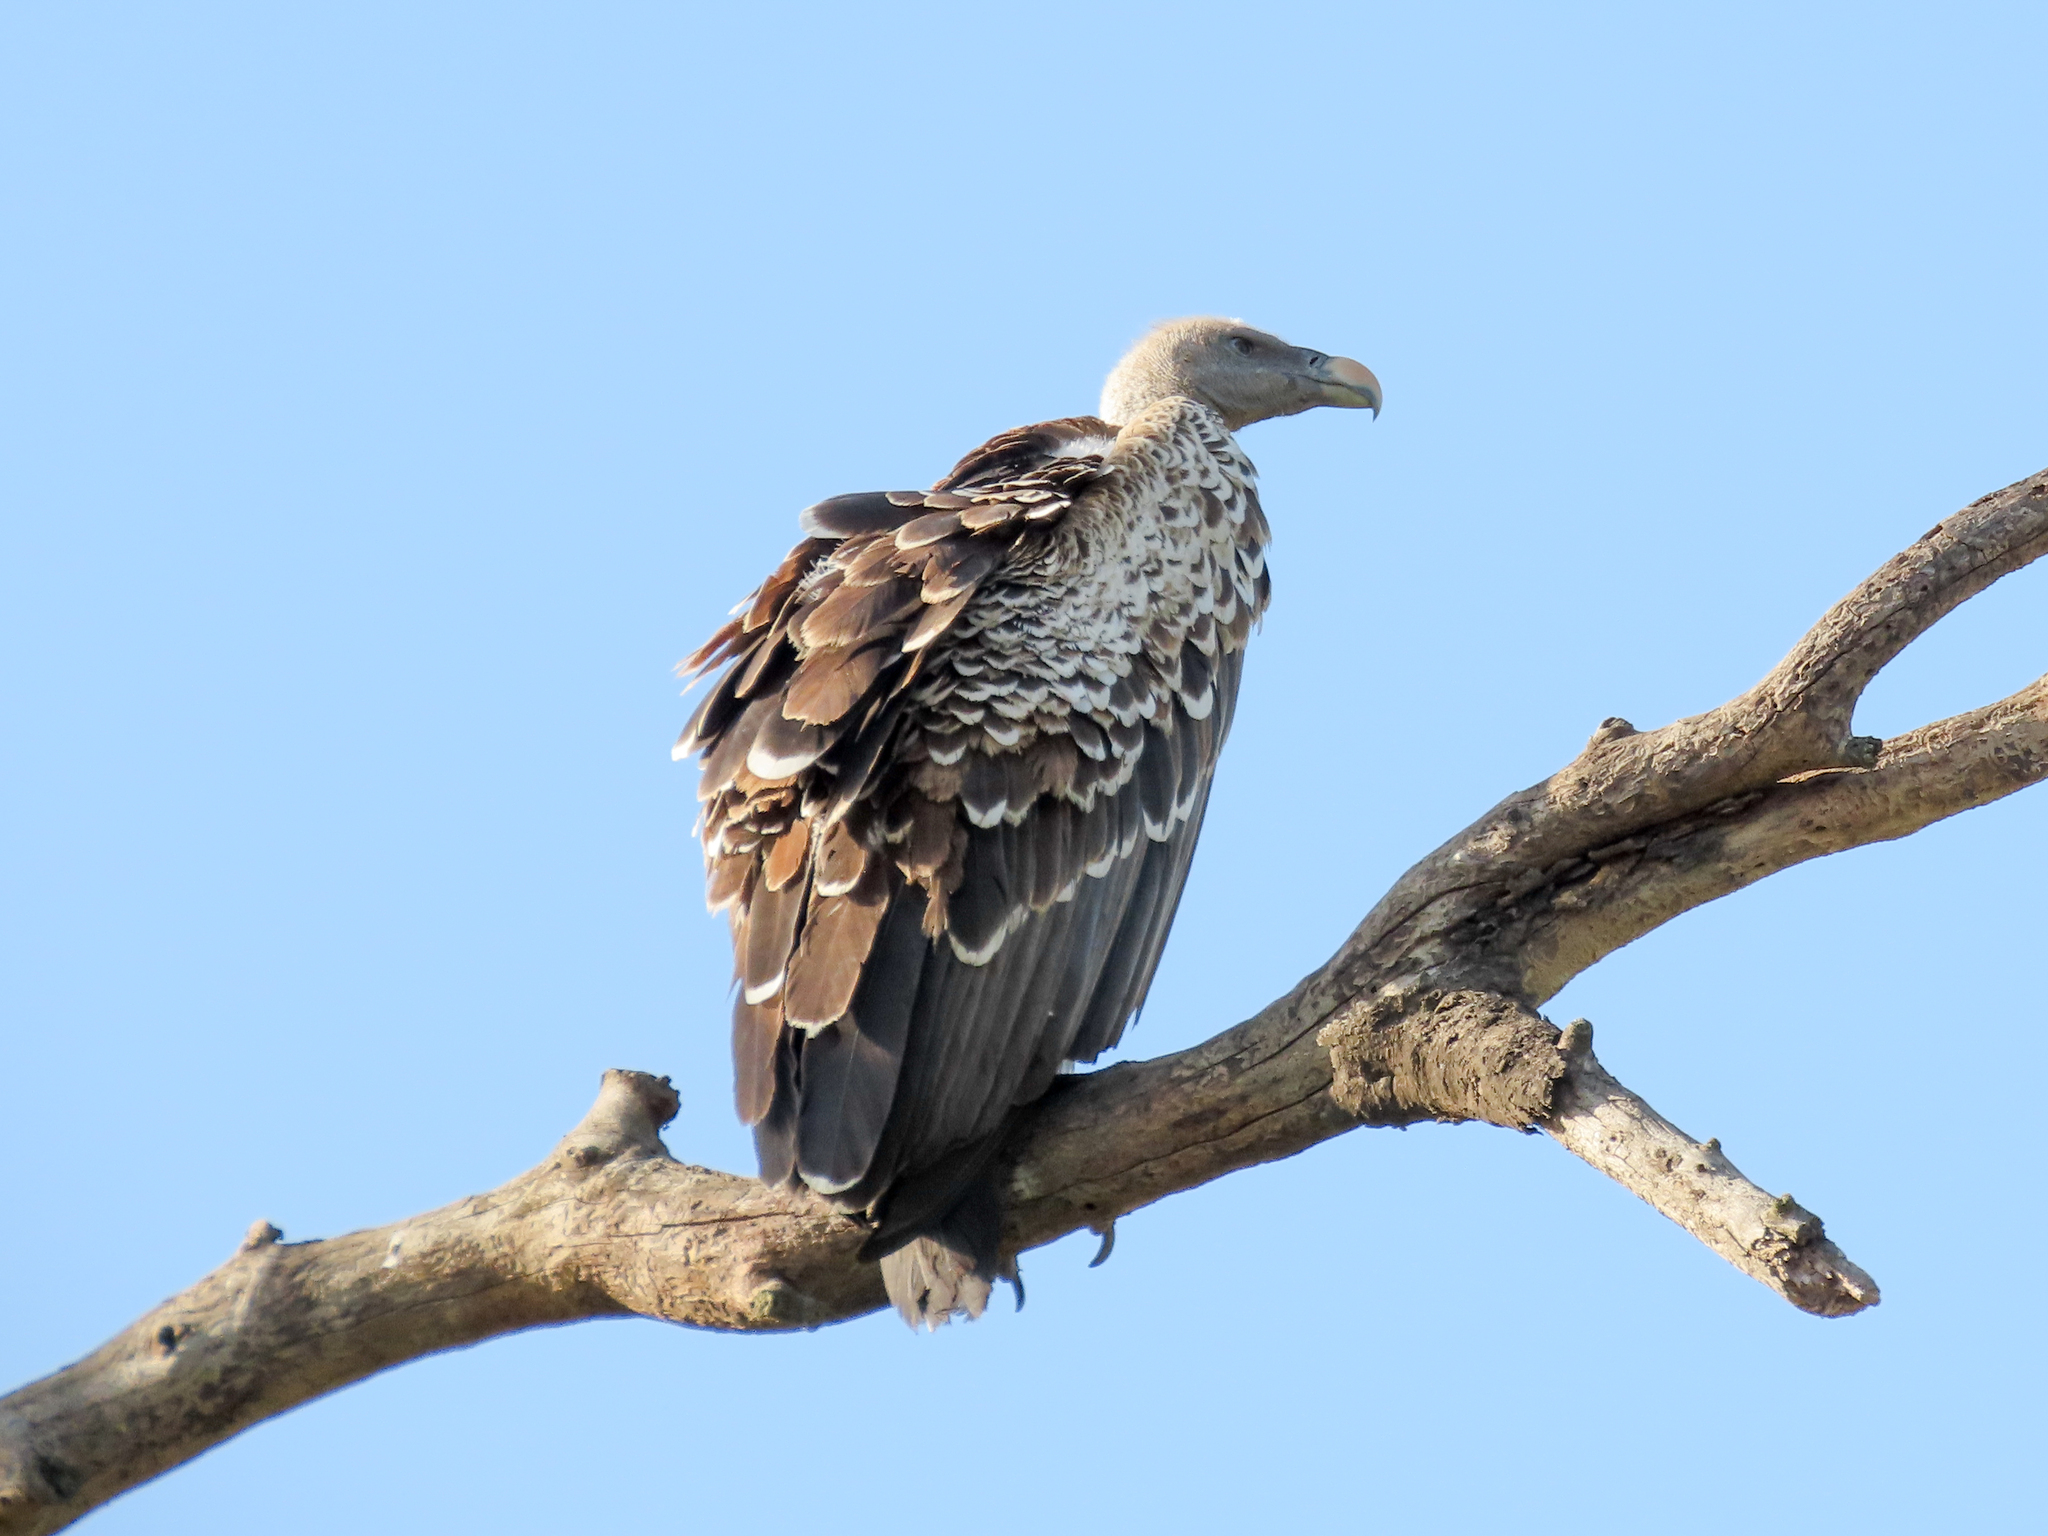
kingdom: Animalia
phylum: Chordata
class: Aves
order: Accipitriformes
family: Accipitridae
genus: Gyps
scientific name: Gyps rueppellii
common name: Rüppell's vulture
